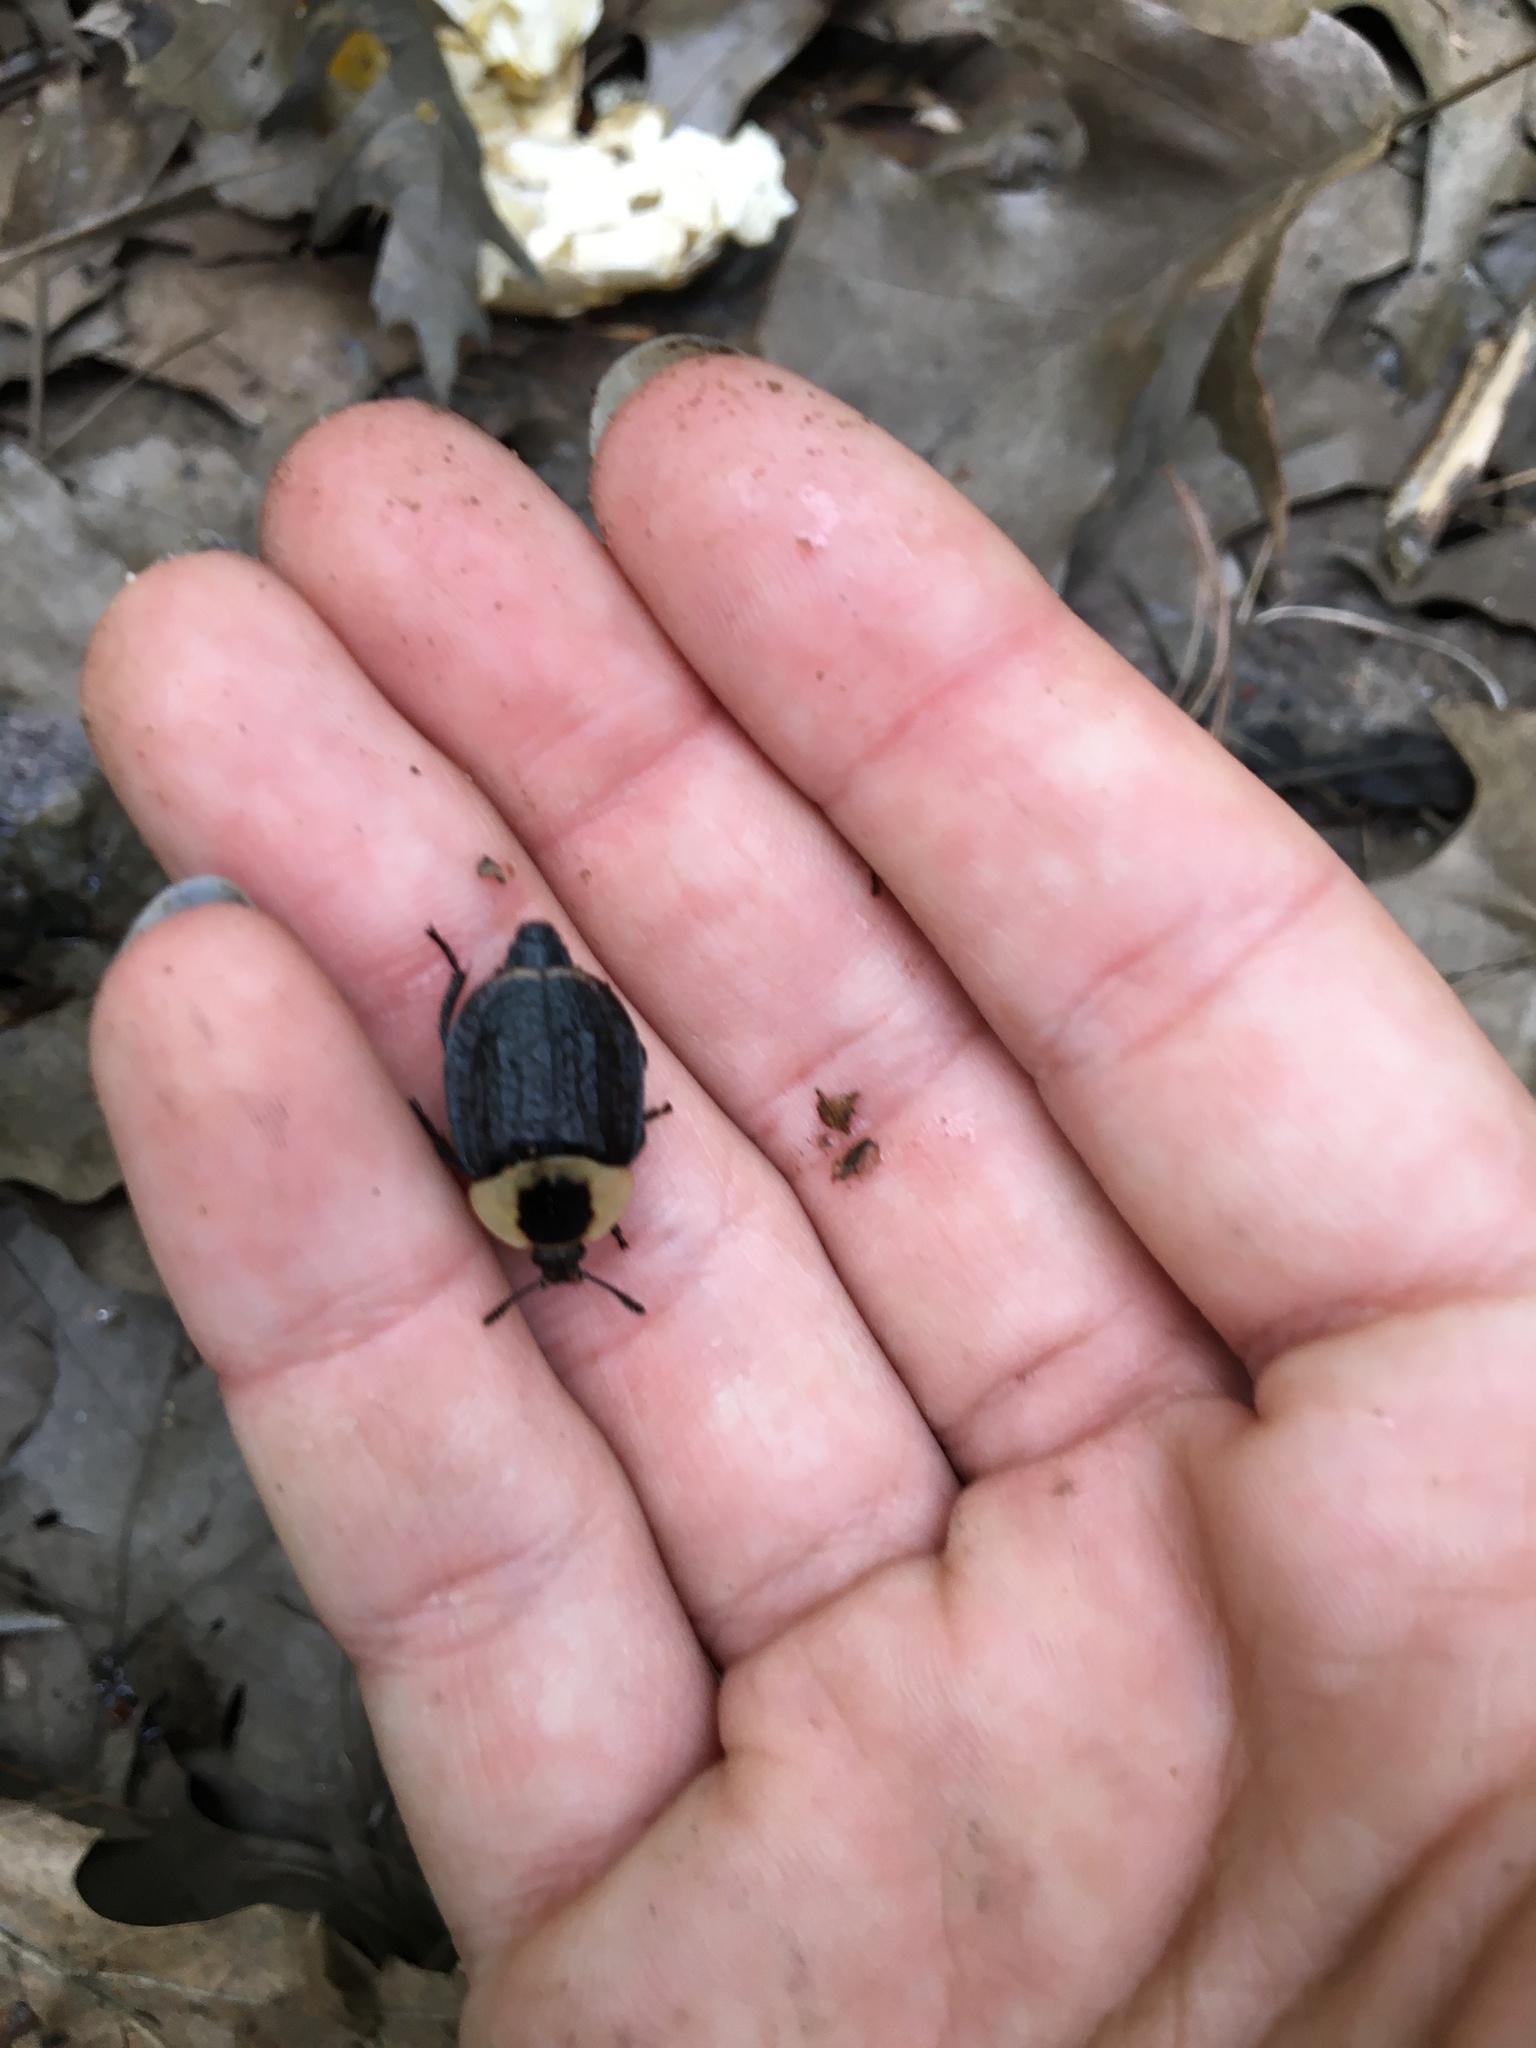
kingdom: Animalia
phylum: Arthropoda
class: Insecta
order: Coleoptera
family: Staphylinidae
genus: Necrophila
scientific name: Necrophila americana
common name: American carrion beetle
